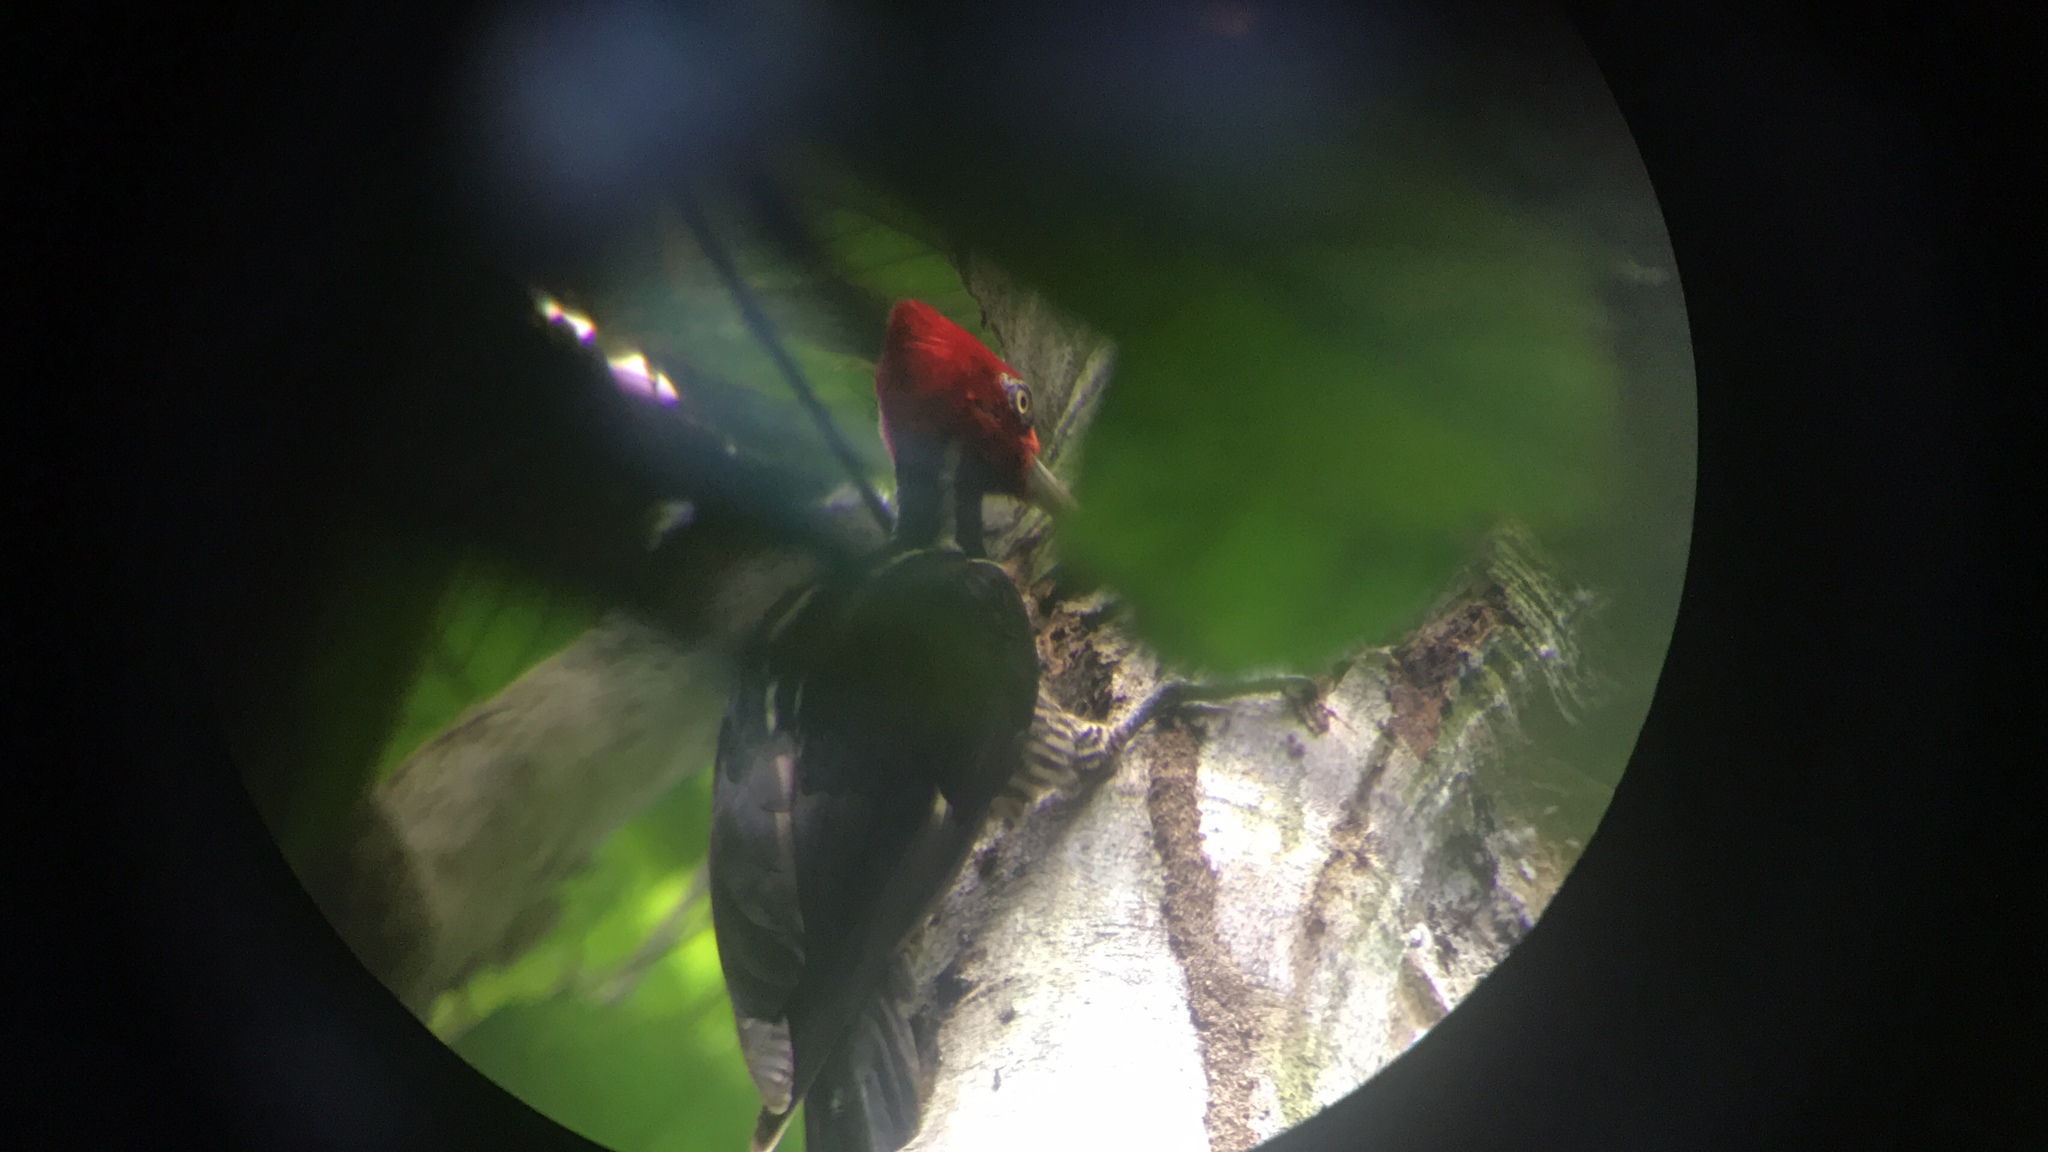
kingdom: Animalia
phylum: Chordata
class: Aves
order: Piciformes
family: Picidae
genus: Campephilus
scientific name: Campephilus guatemalensis
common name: Pale-billed woodpecker
